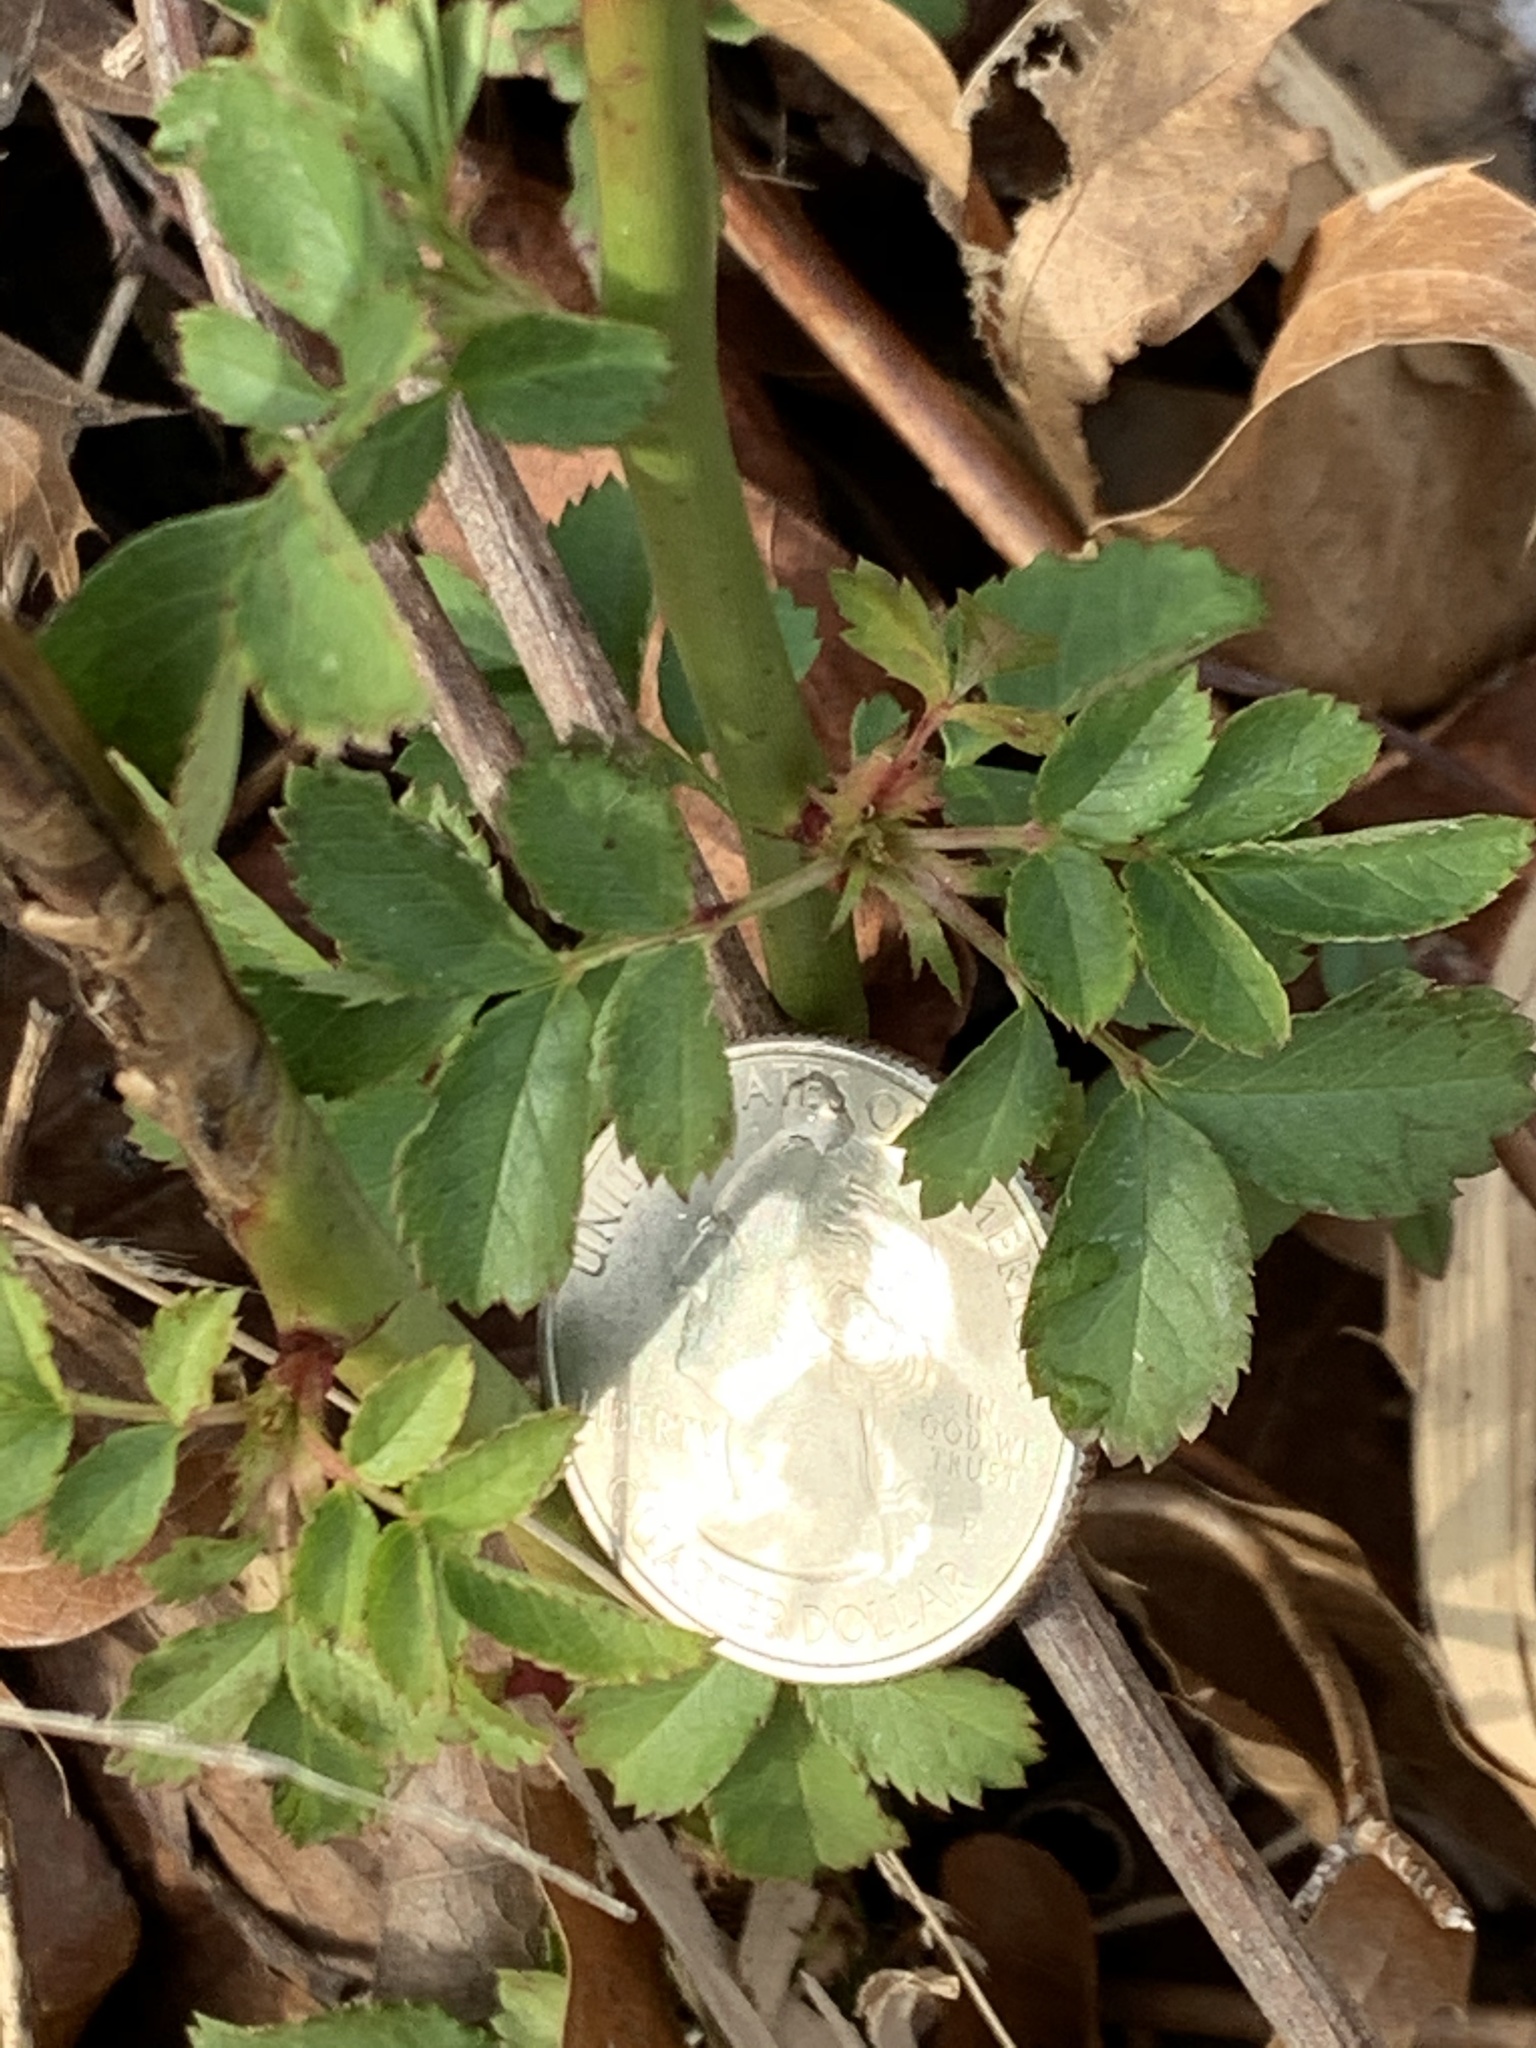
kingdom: Plantae
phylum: Tracheophyta
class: Magnoliopsida
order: Rosales
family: Rosaceae
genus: Rosa
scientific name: Rosa multiflora
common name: Multiflora rose
